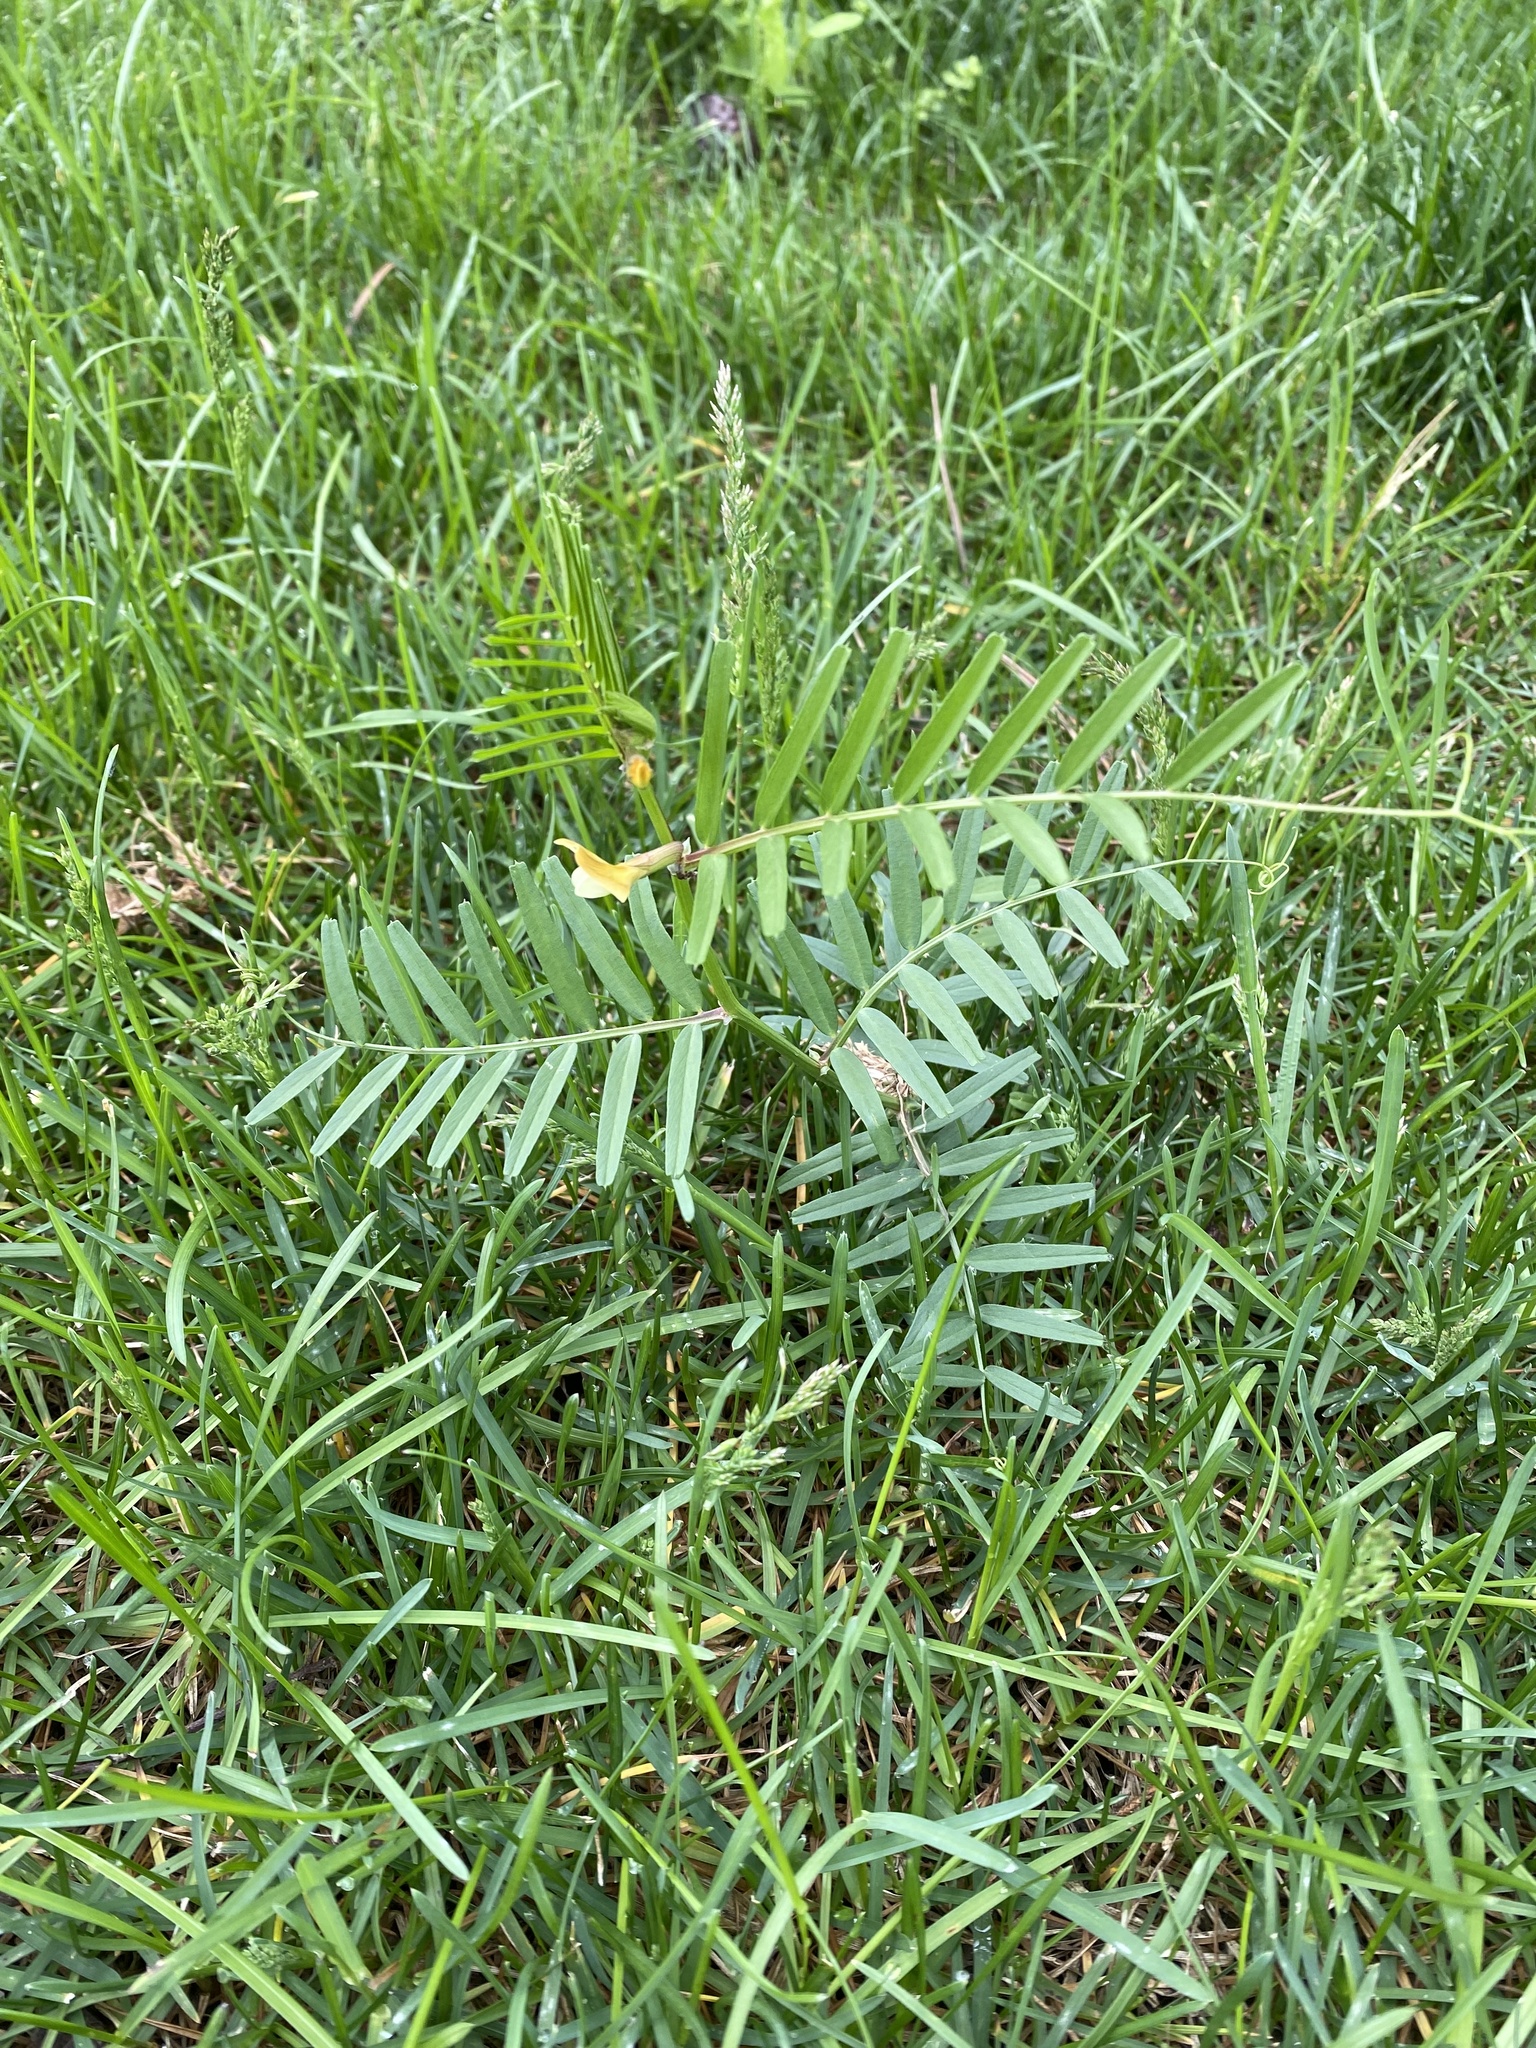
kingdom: Plantae
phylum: Tracheophyta
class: Magnoliopsida
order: Fabales
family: Fabaceae
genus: Vicia
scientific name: Vicia grandiflora
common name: Large yellow vetch
